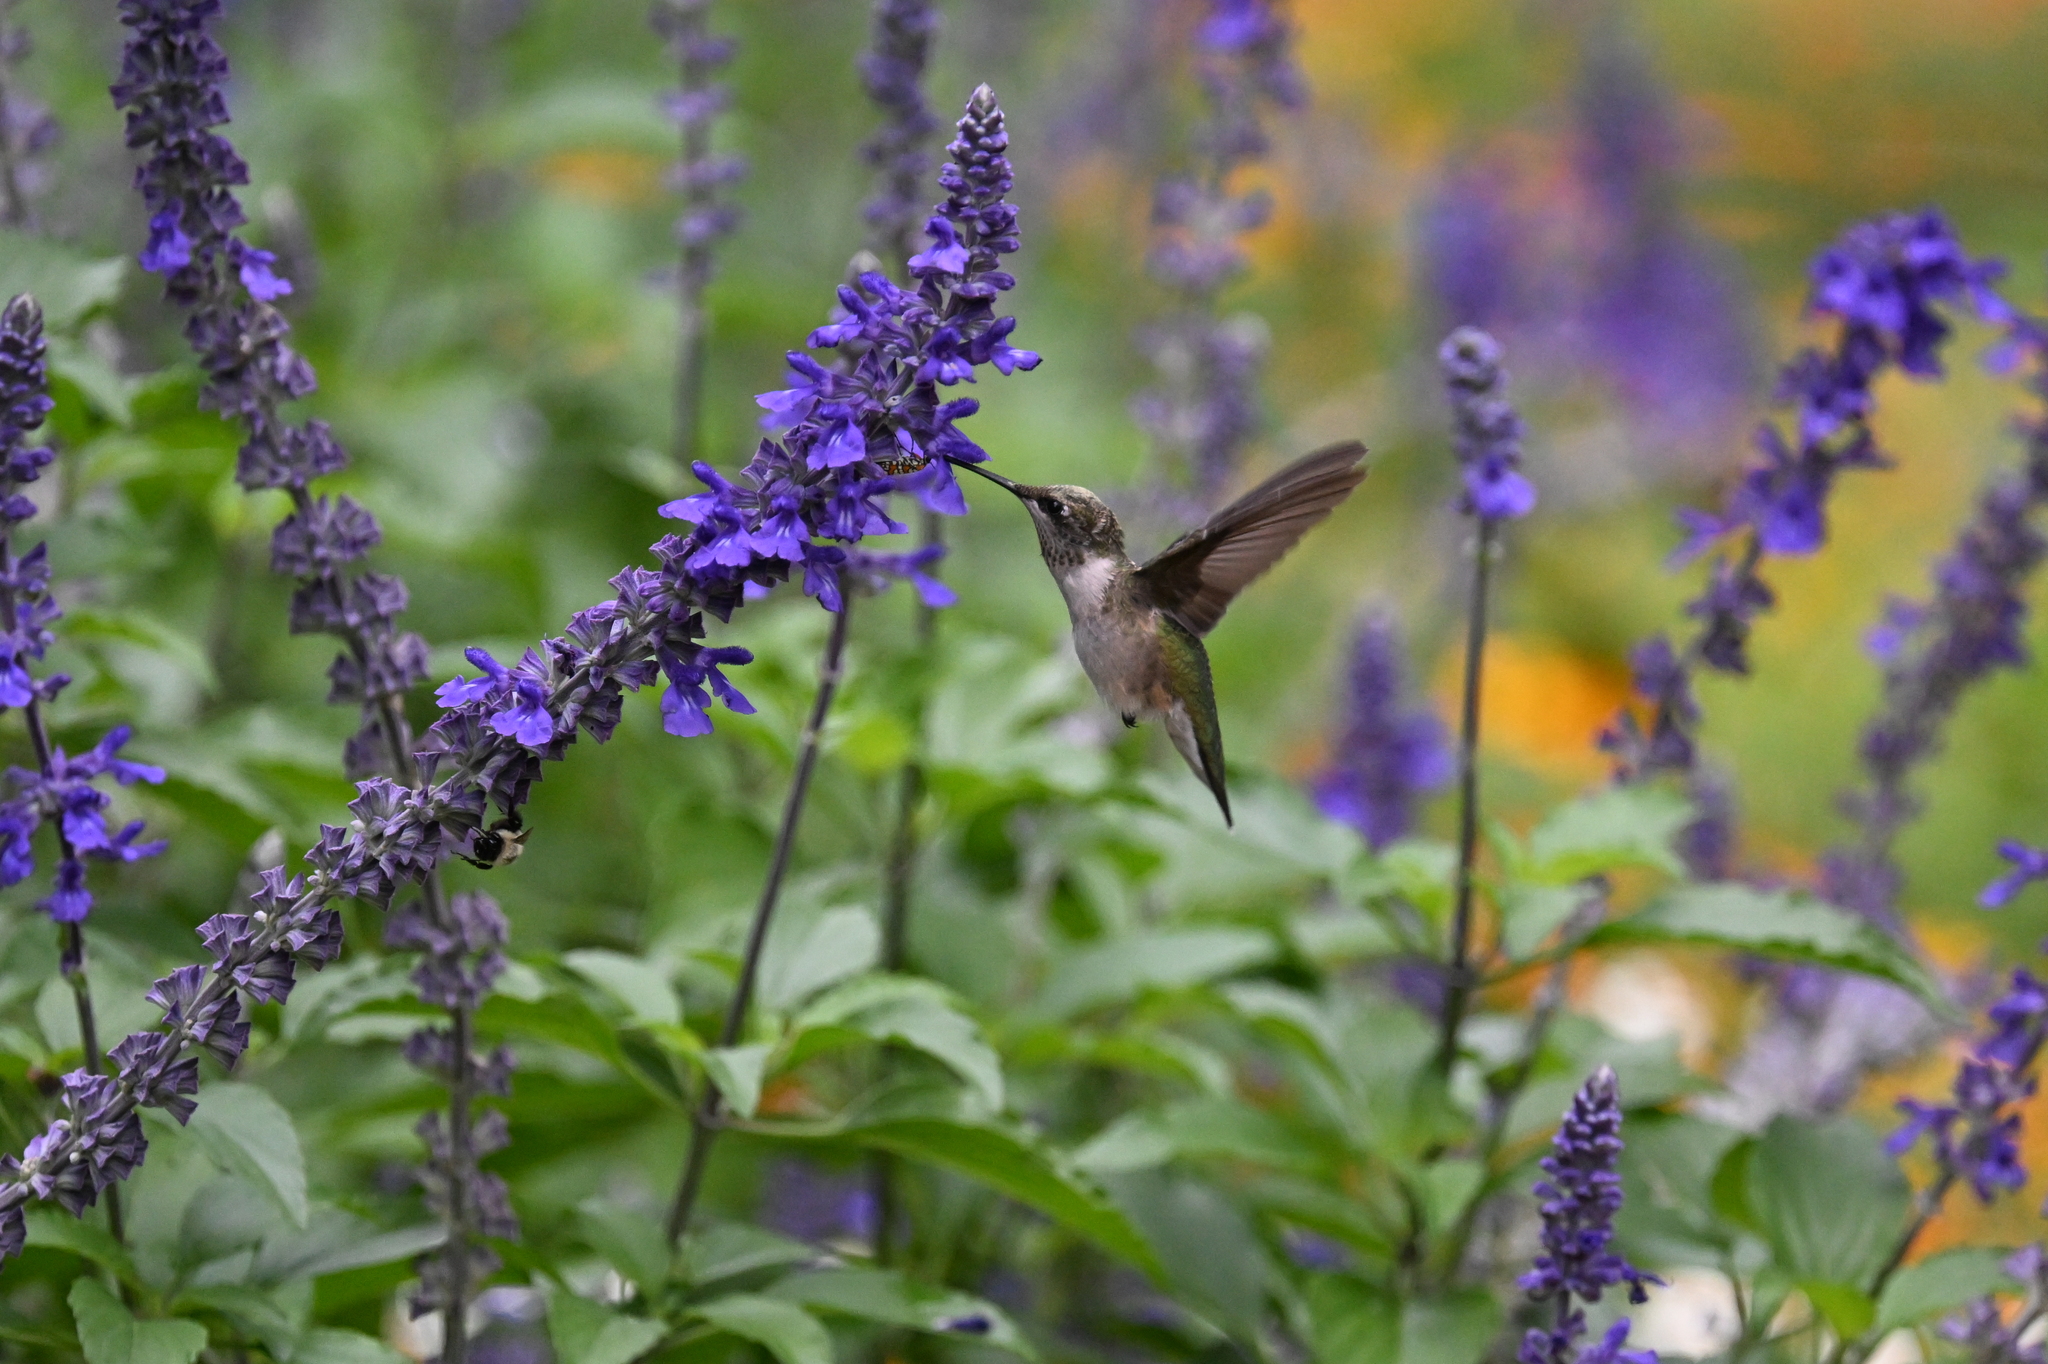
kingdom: Animalia
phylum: Chordata
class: Aves
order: Apodiformes
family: Trochilidae
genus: Archilochus
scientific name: Archilochus colubris
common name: Ruby-throated hummingbird
